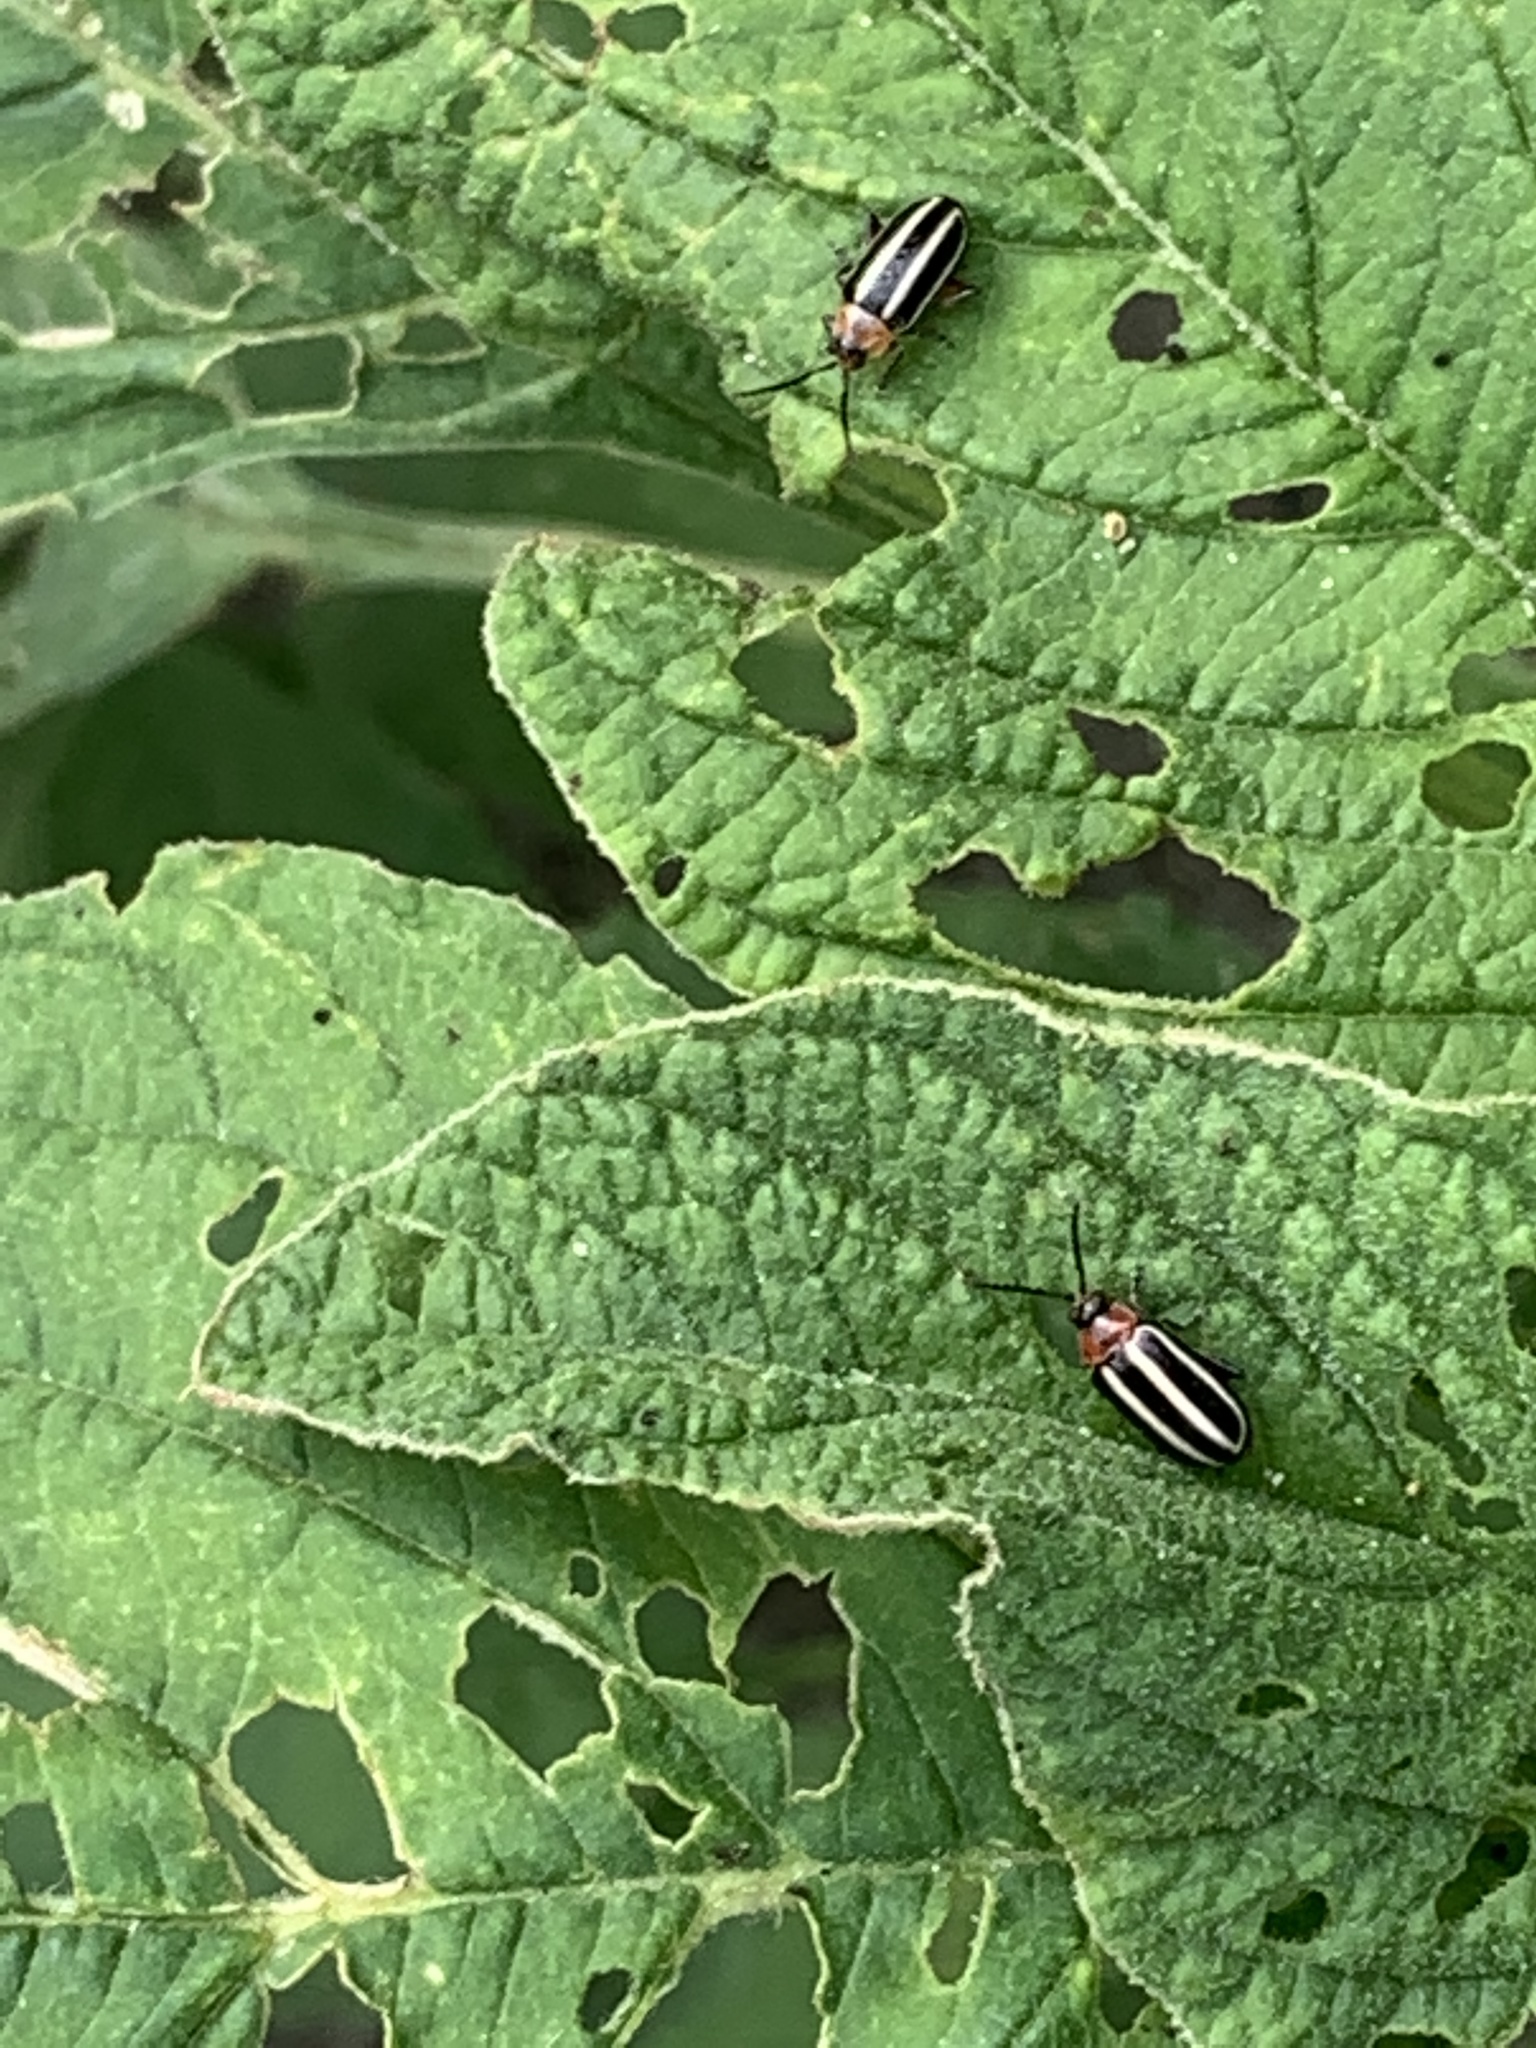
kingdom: Animalia
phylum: Arthropoda
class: Insecta
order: Coleoptera
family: Chrysomelidae
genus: Disonycha
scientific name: Disonycha glabrata
